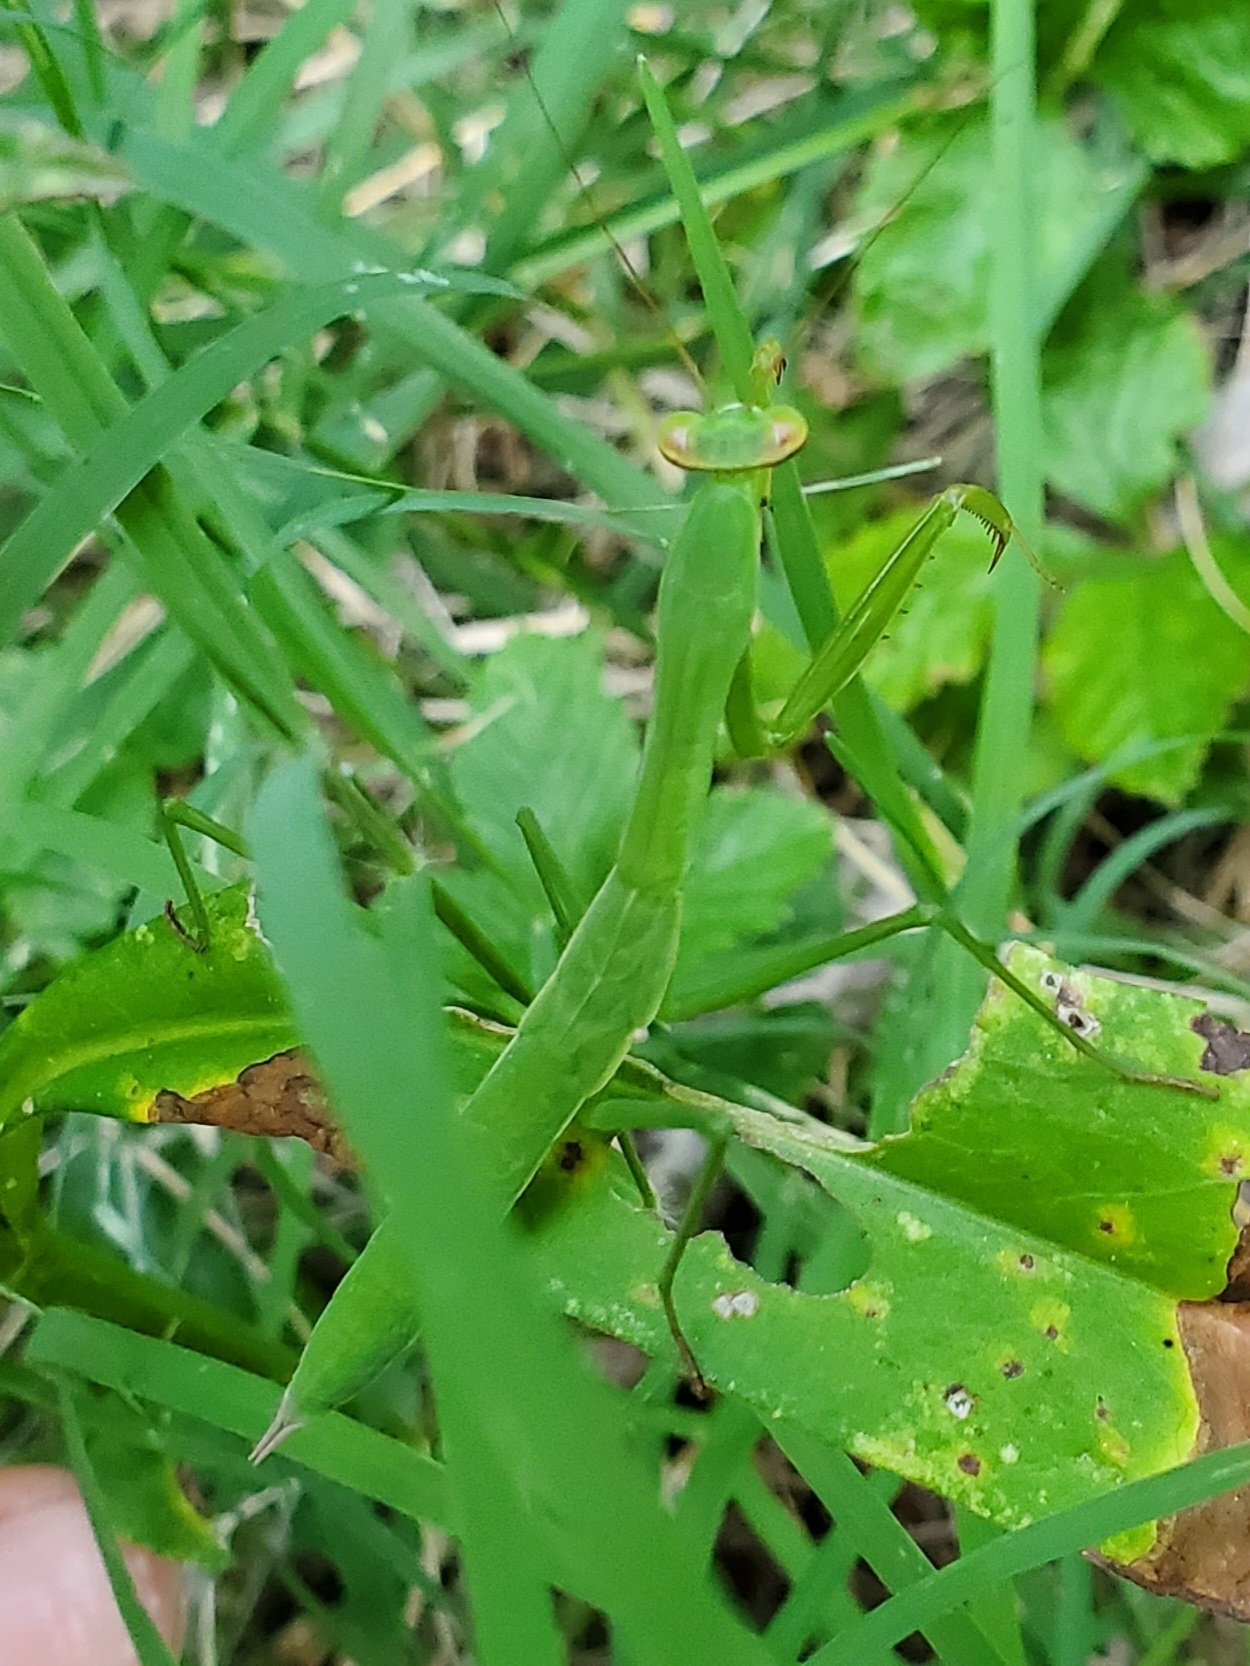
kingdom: Animalia
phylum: Arthropoda
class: Insecta
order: Mantodea
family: Mantidae
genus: Tenodera
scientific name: Tenodera sinensis
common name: Chinese mantis
